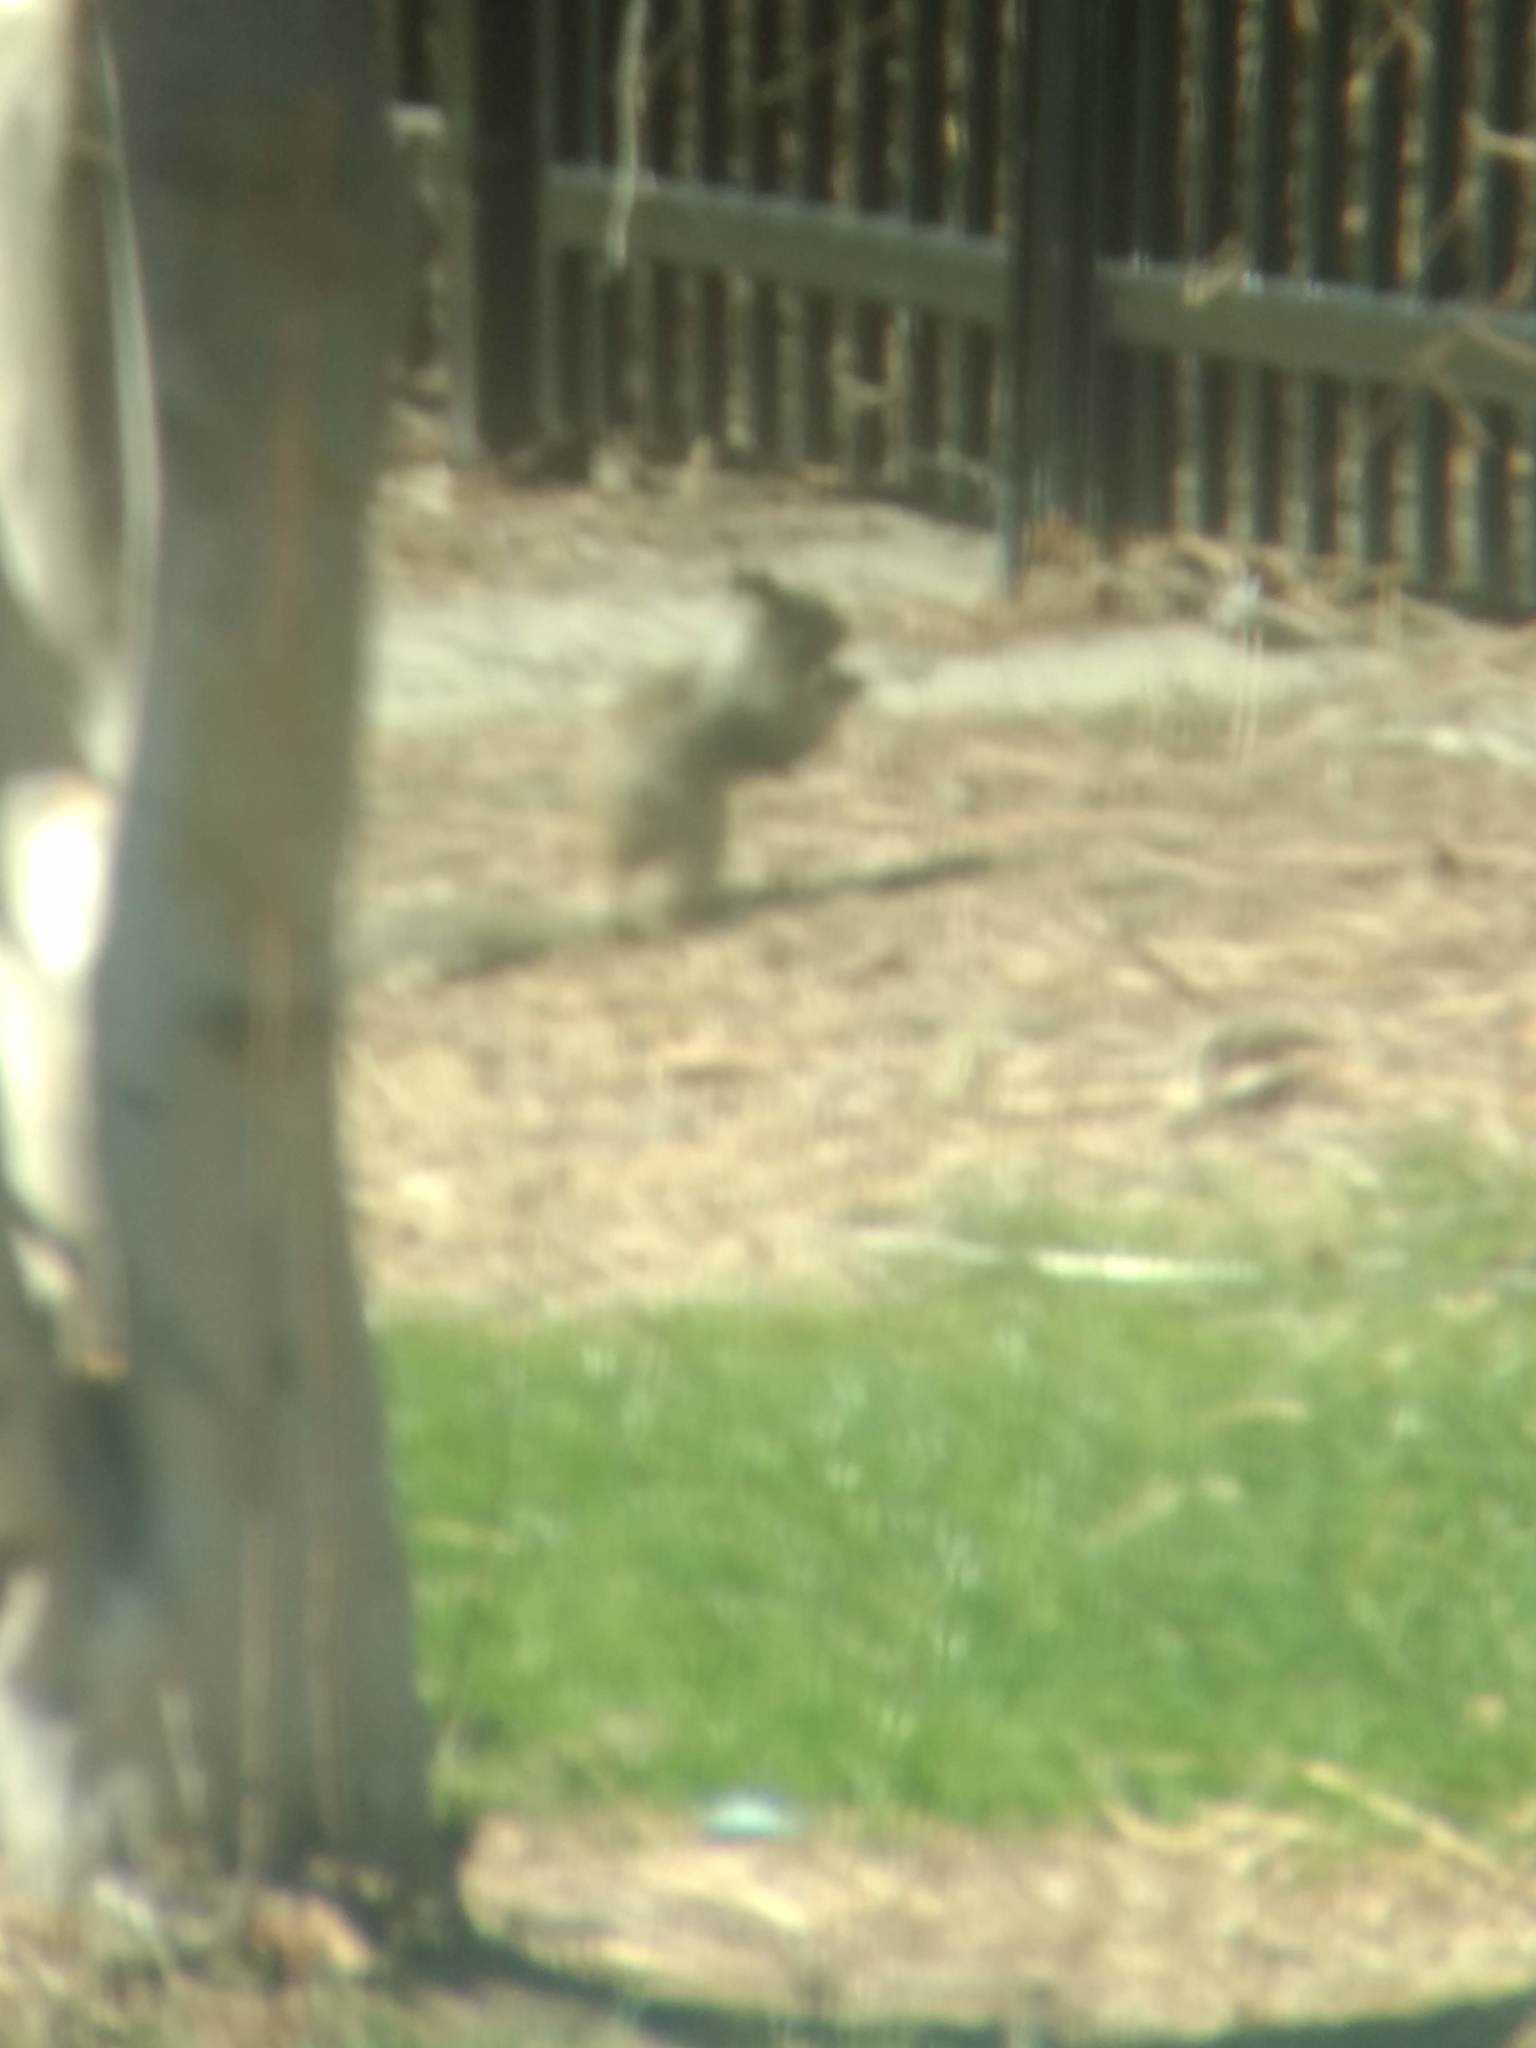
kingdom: Animalia
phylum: Chordata
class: Mammalia
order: Rodentia
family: Sciuridae
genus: Otospermophilus
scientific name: Otospermophilus beecheyi
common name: California ground squirrel
